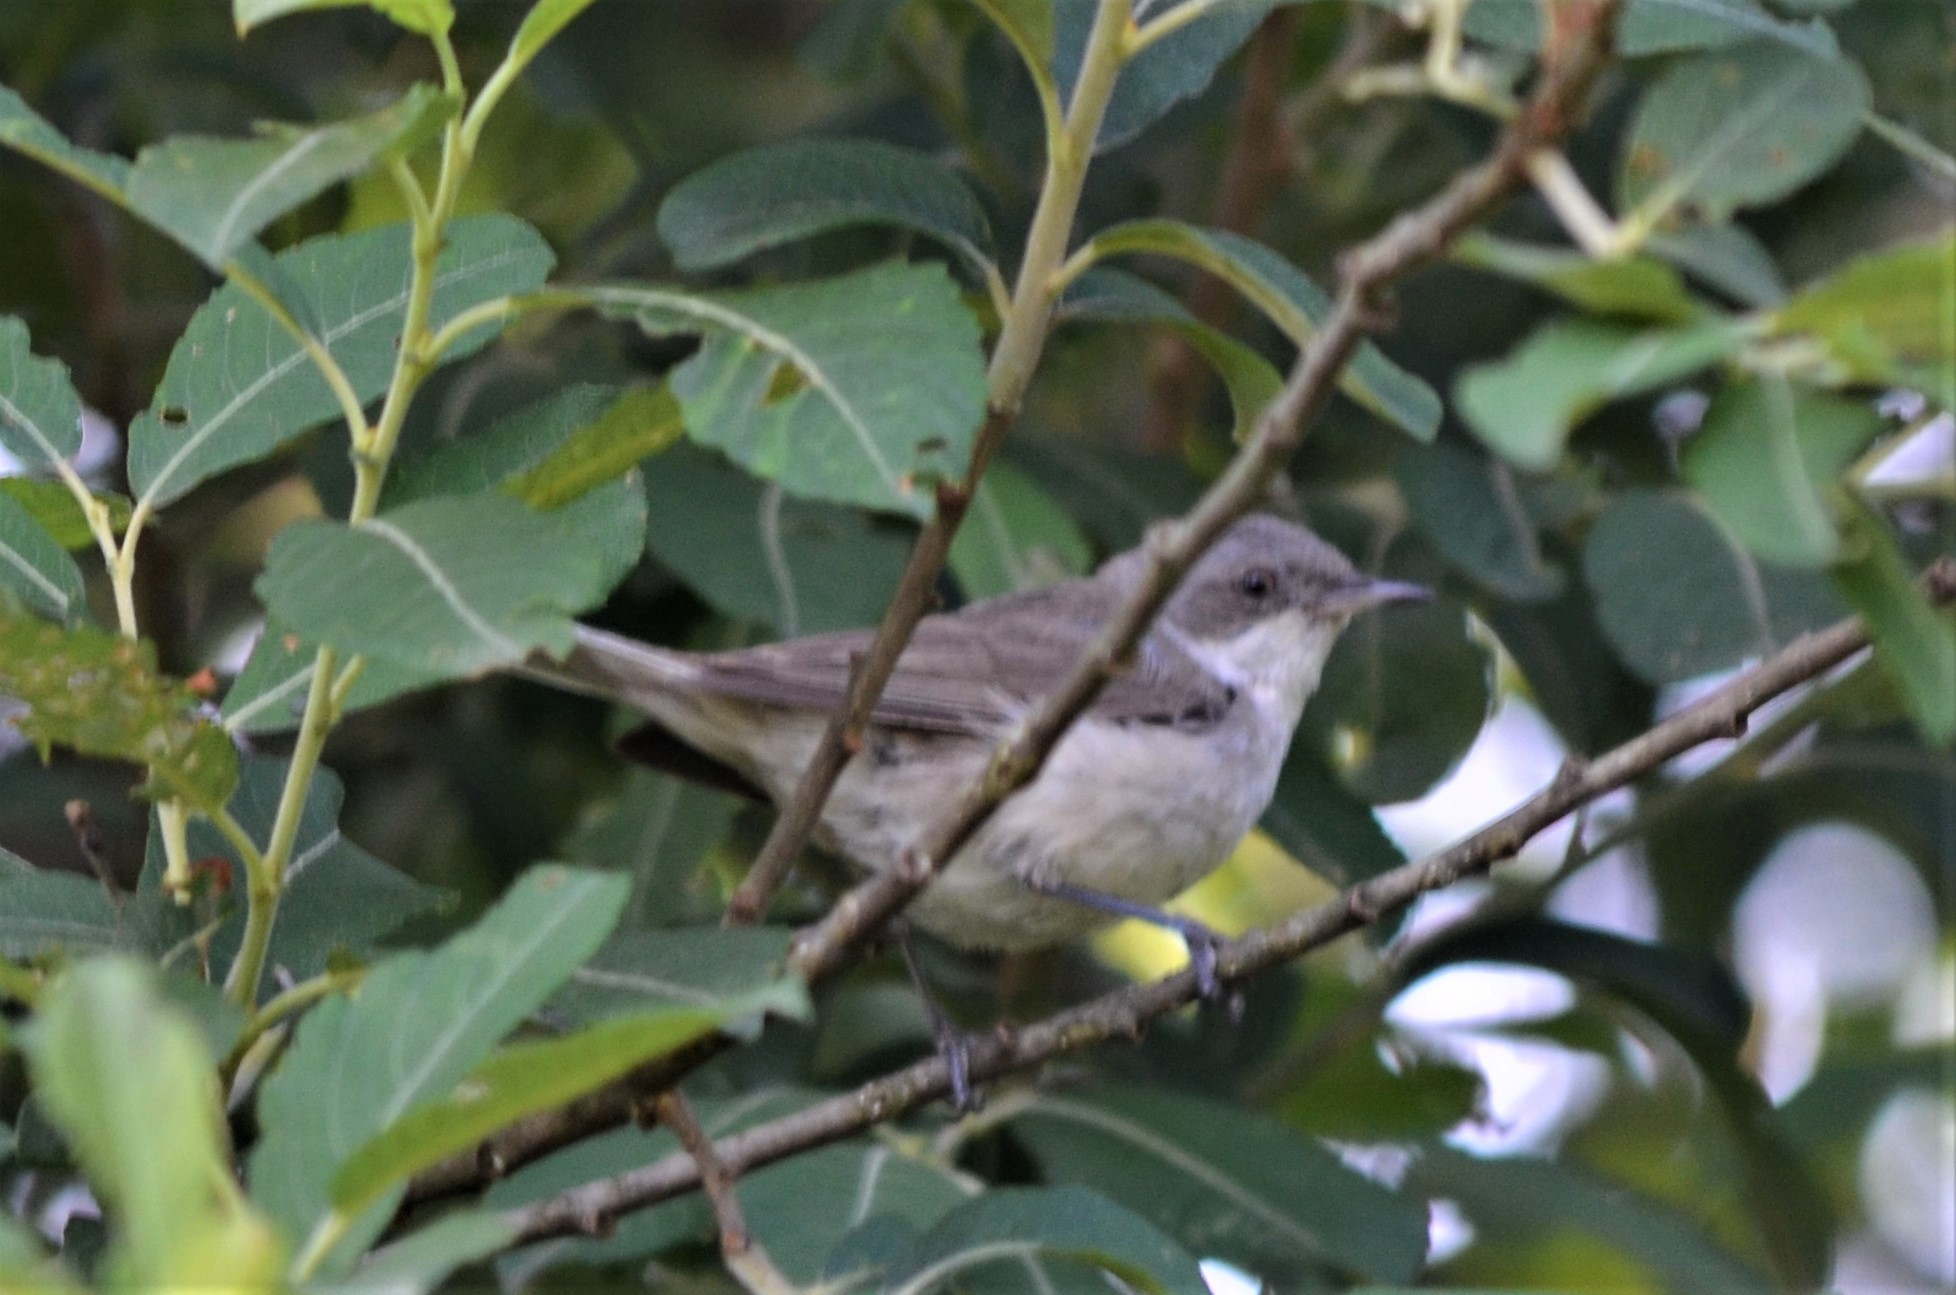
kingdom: Animalia
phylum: Chordata
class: Aves
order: Passeriformes
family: Sylviidae
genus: Sylvia
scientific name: Sylvia curruca
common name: Lesser whitethroat
